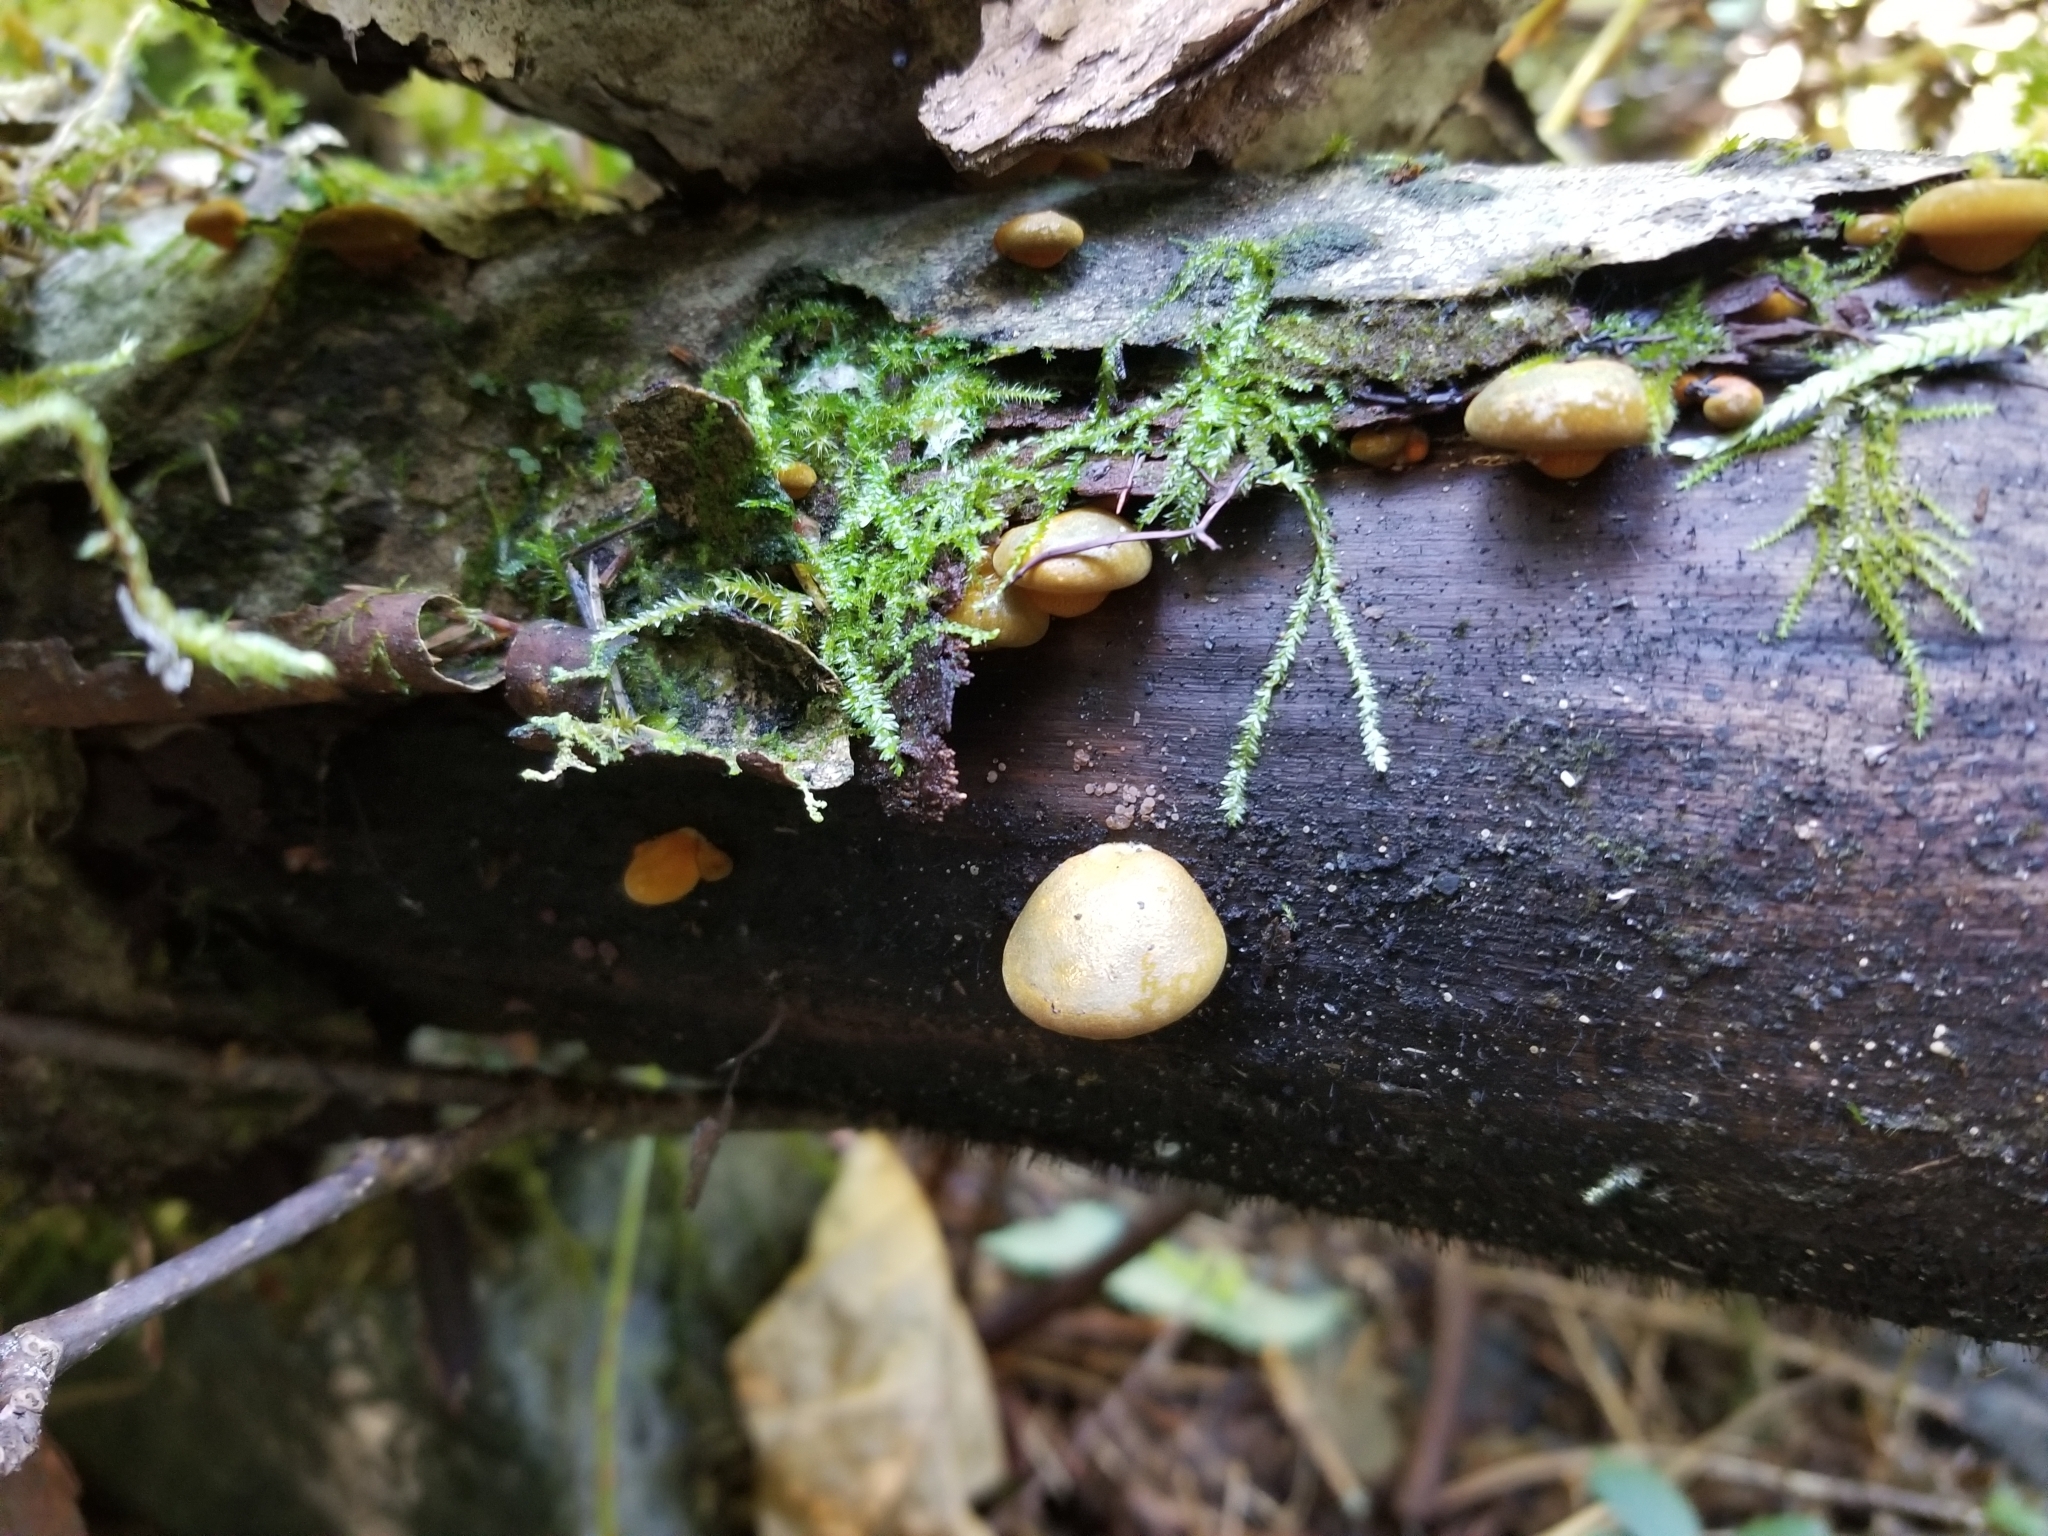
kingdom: Fungi
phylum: Basidiomycota
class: Agaricomycetes
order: Agaricales
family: Sarcomyxaceae
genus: Sarcomyxa
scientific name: Sarcomyxa serotina
